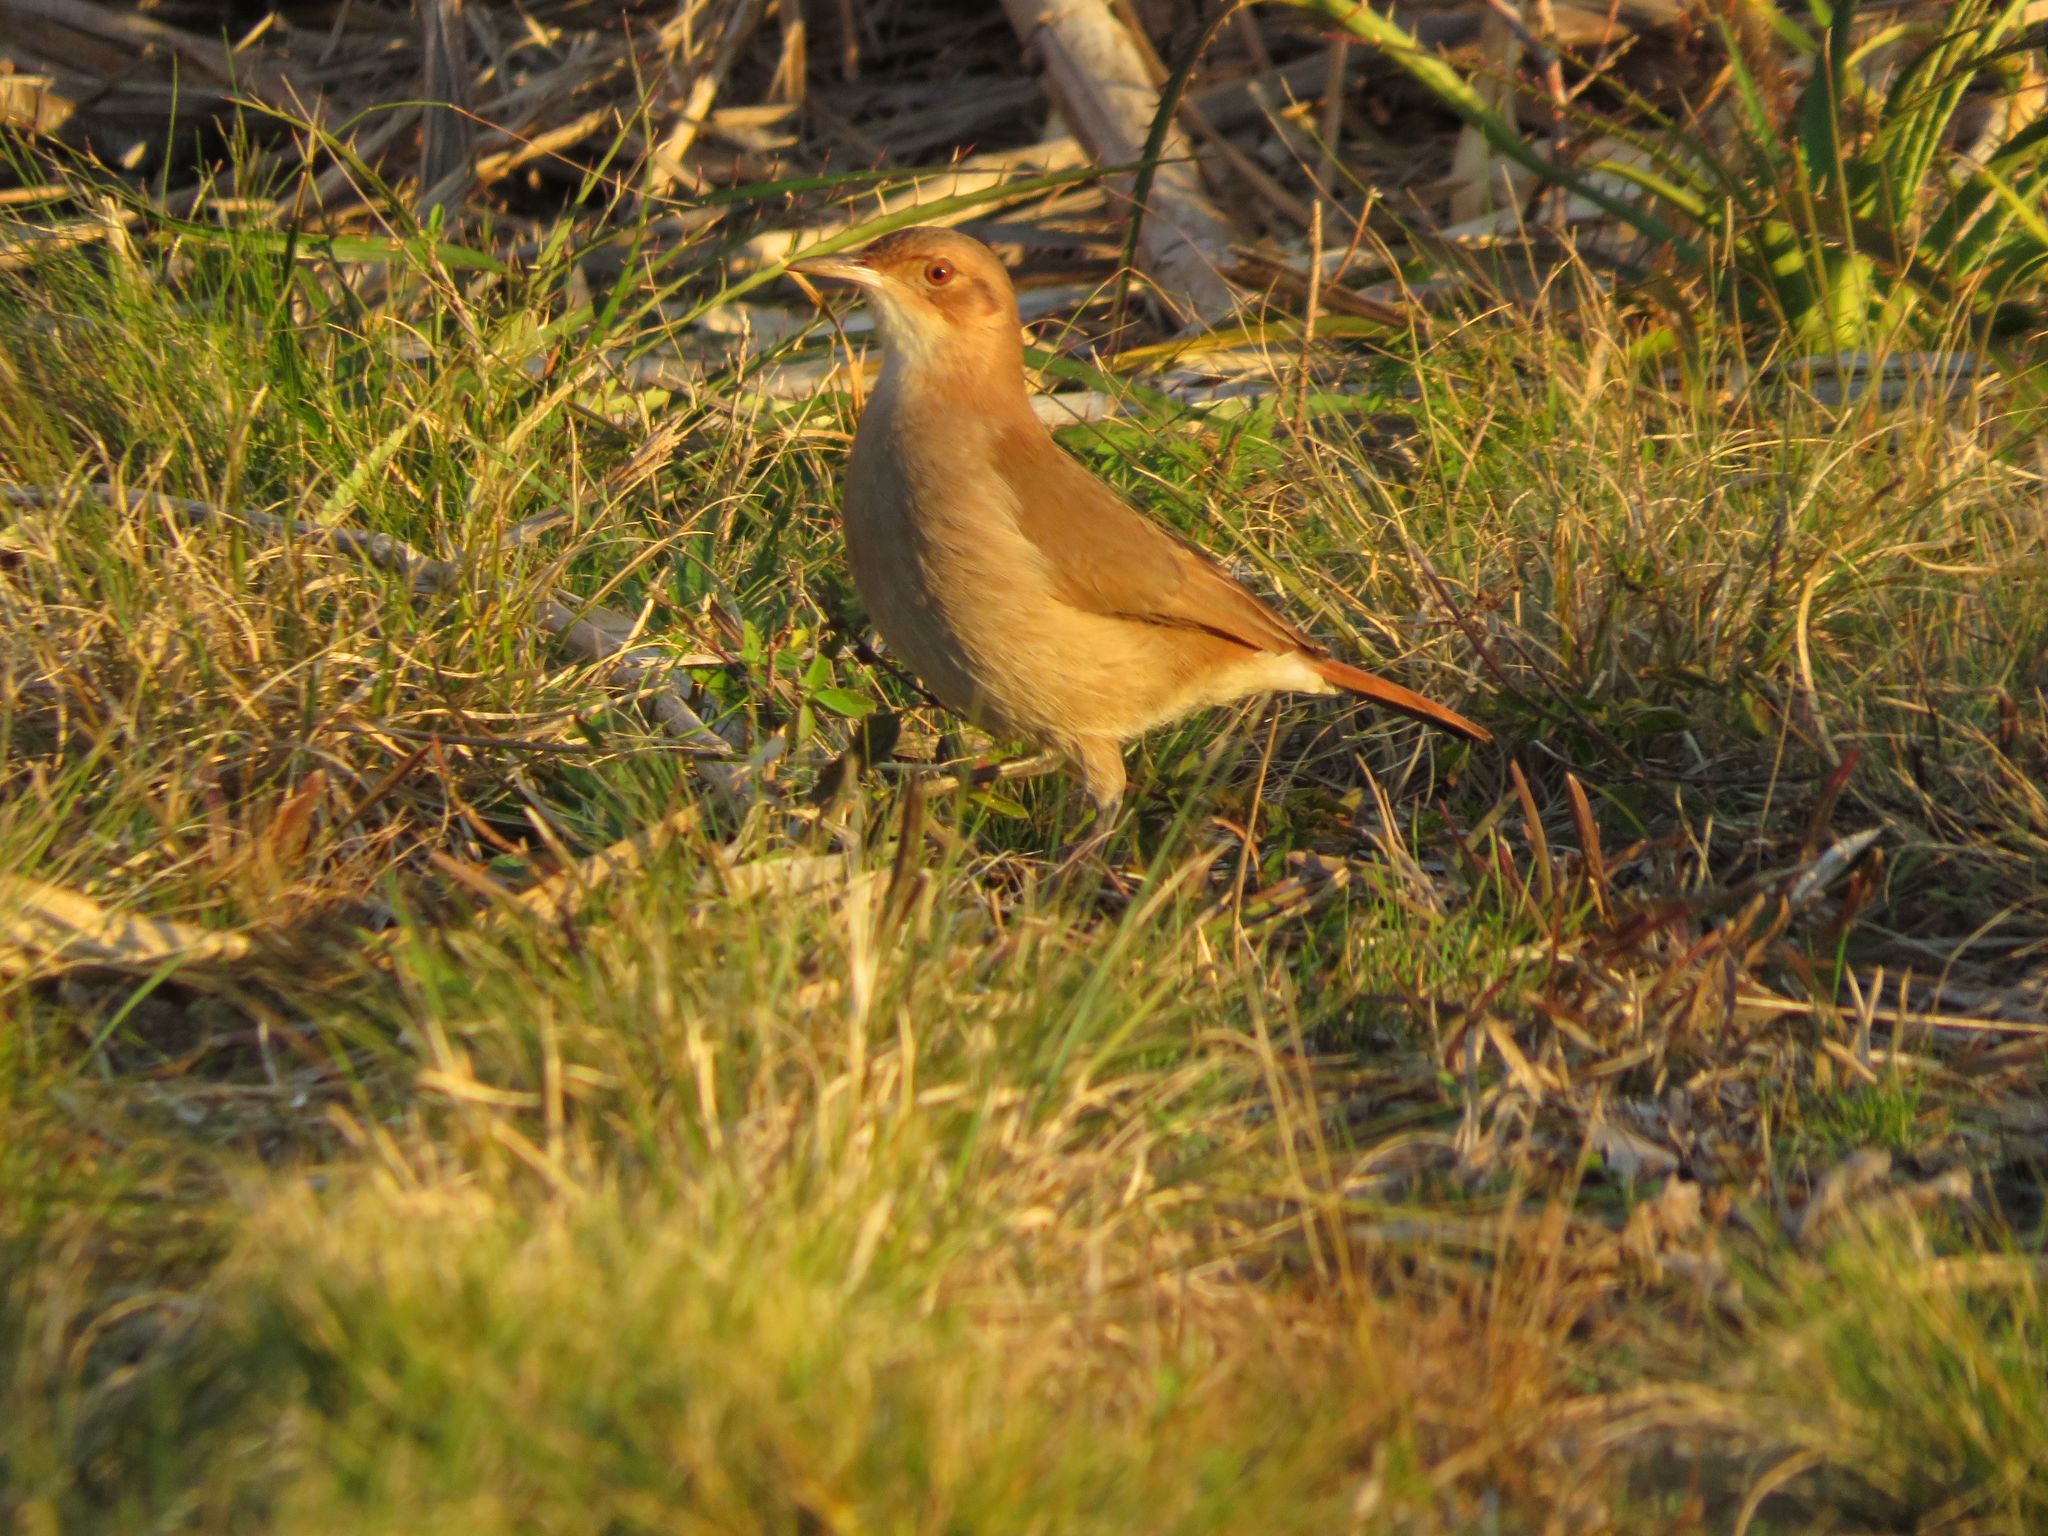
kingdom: Animalia
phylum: Chordata
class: Aves
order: Passeriformes
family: Furnariidae
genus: Furnarius
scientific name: Furnarius rufus
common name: Rufous hornero
